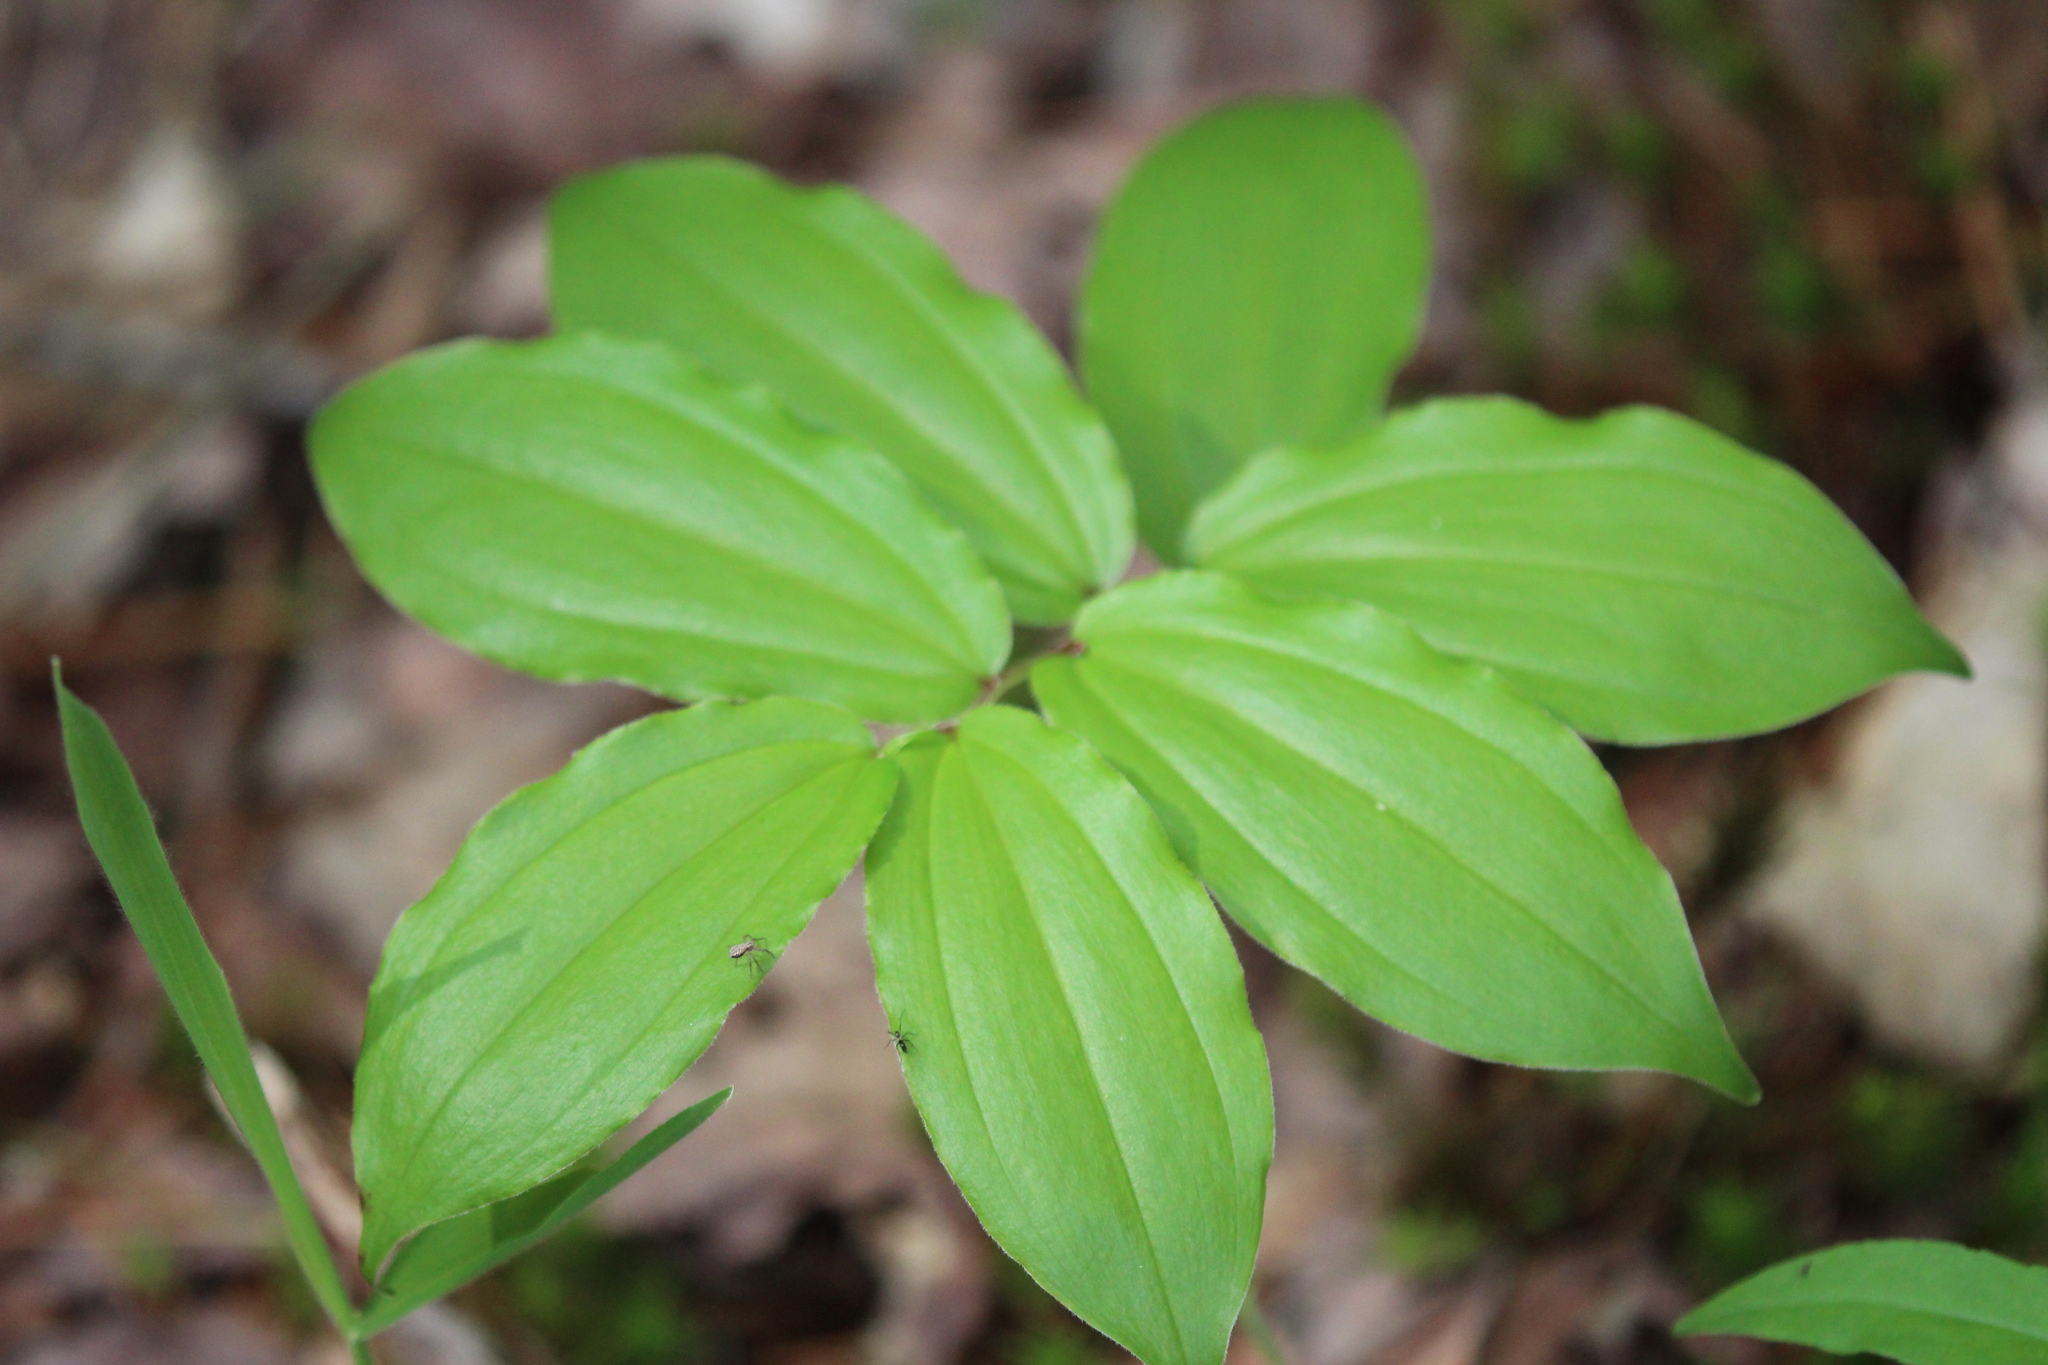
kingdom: Plantae
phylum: Tracheophyta
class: Liliopsida
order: Asparagales
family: Asparagaceae
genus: Maianthemum
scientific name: Maianthemum racemosum
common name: False spikenard
